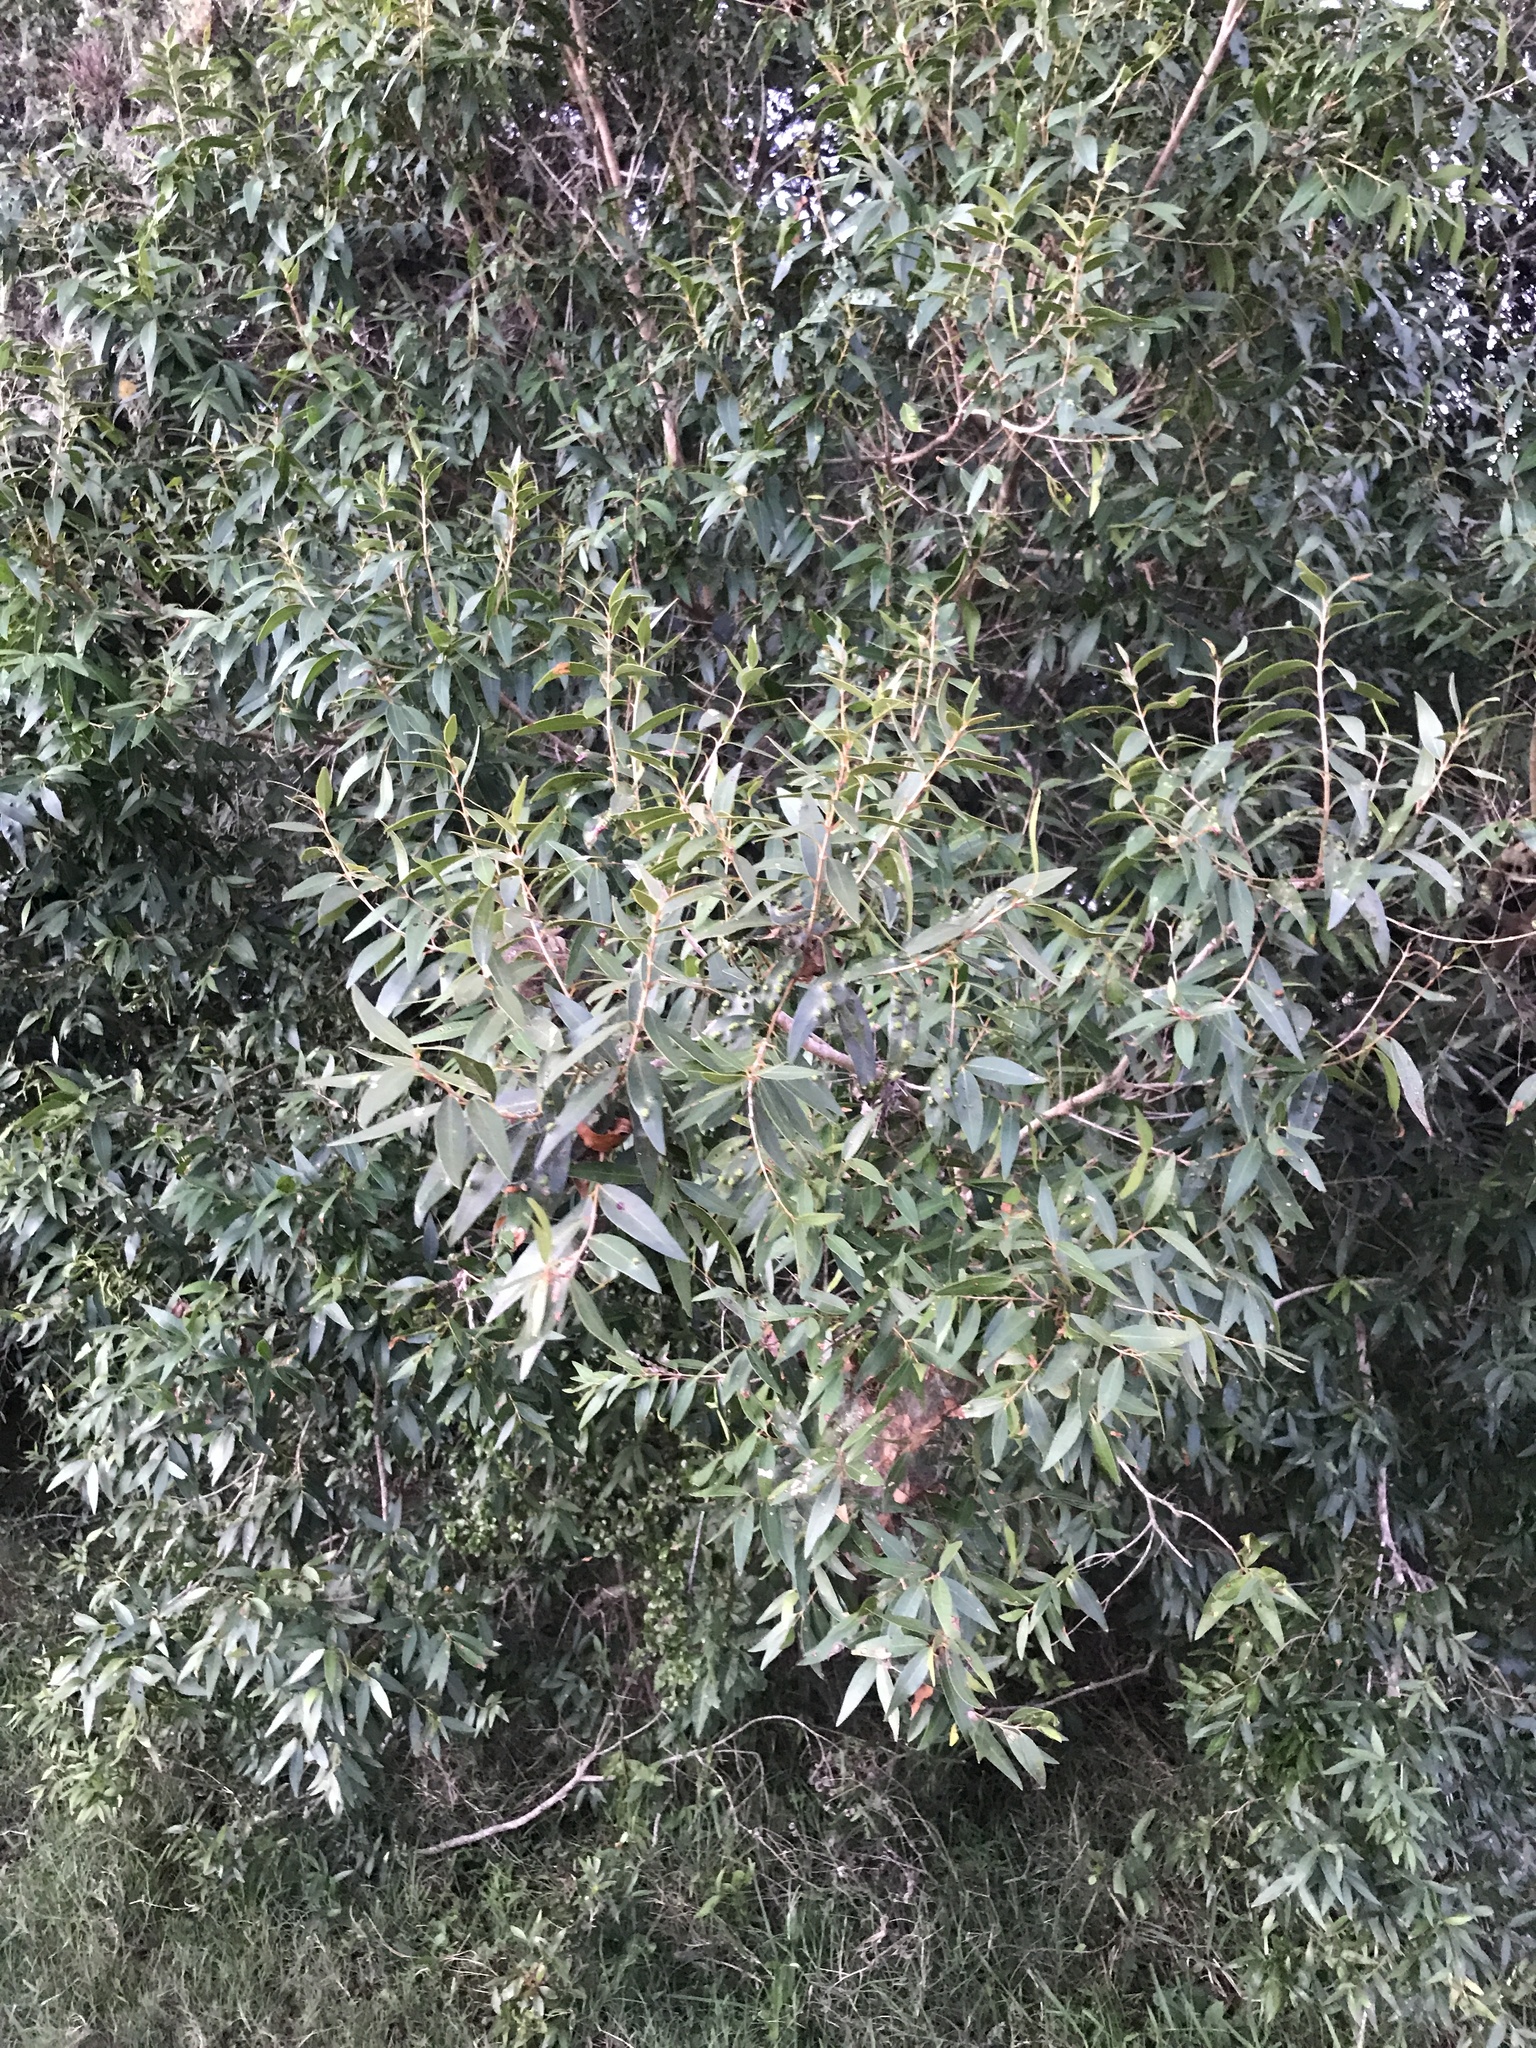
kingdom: Plantae
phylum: Tracheophyta
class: Magnoliopsida
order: Myrtales
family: Myrtaceae
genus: Blepharocalyx
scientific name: Blepharocalyx salicifolius
